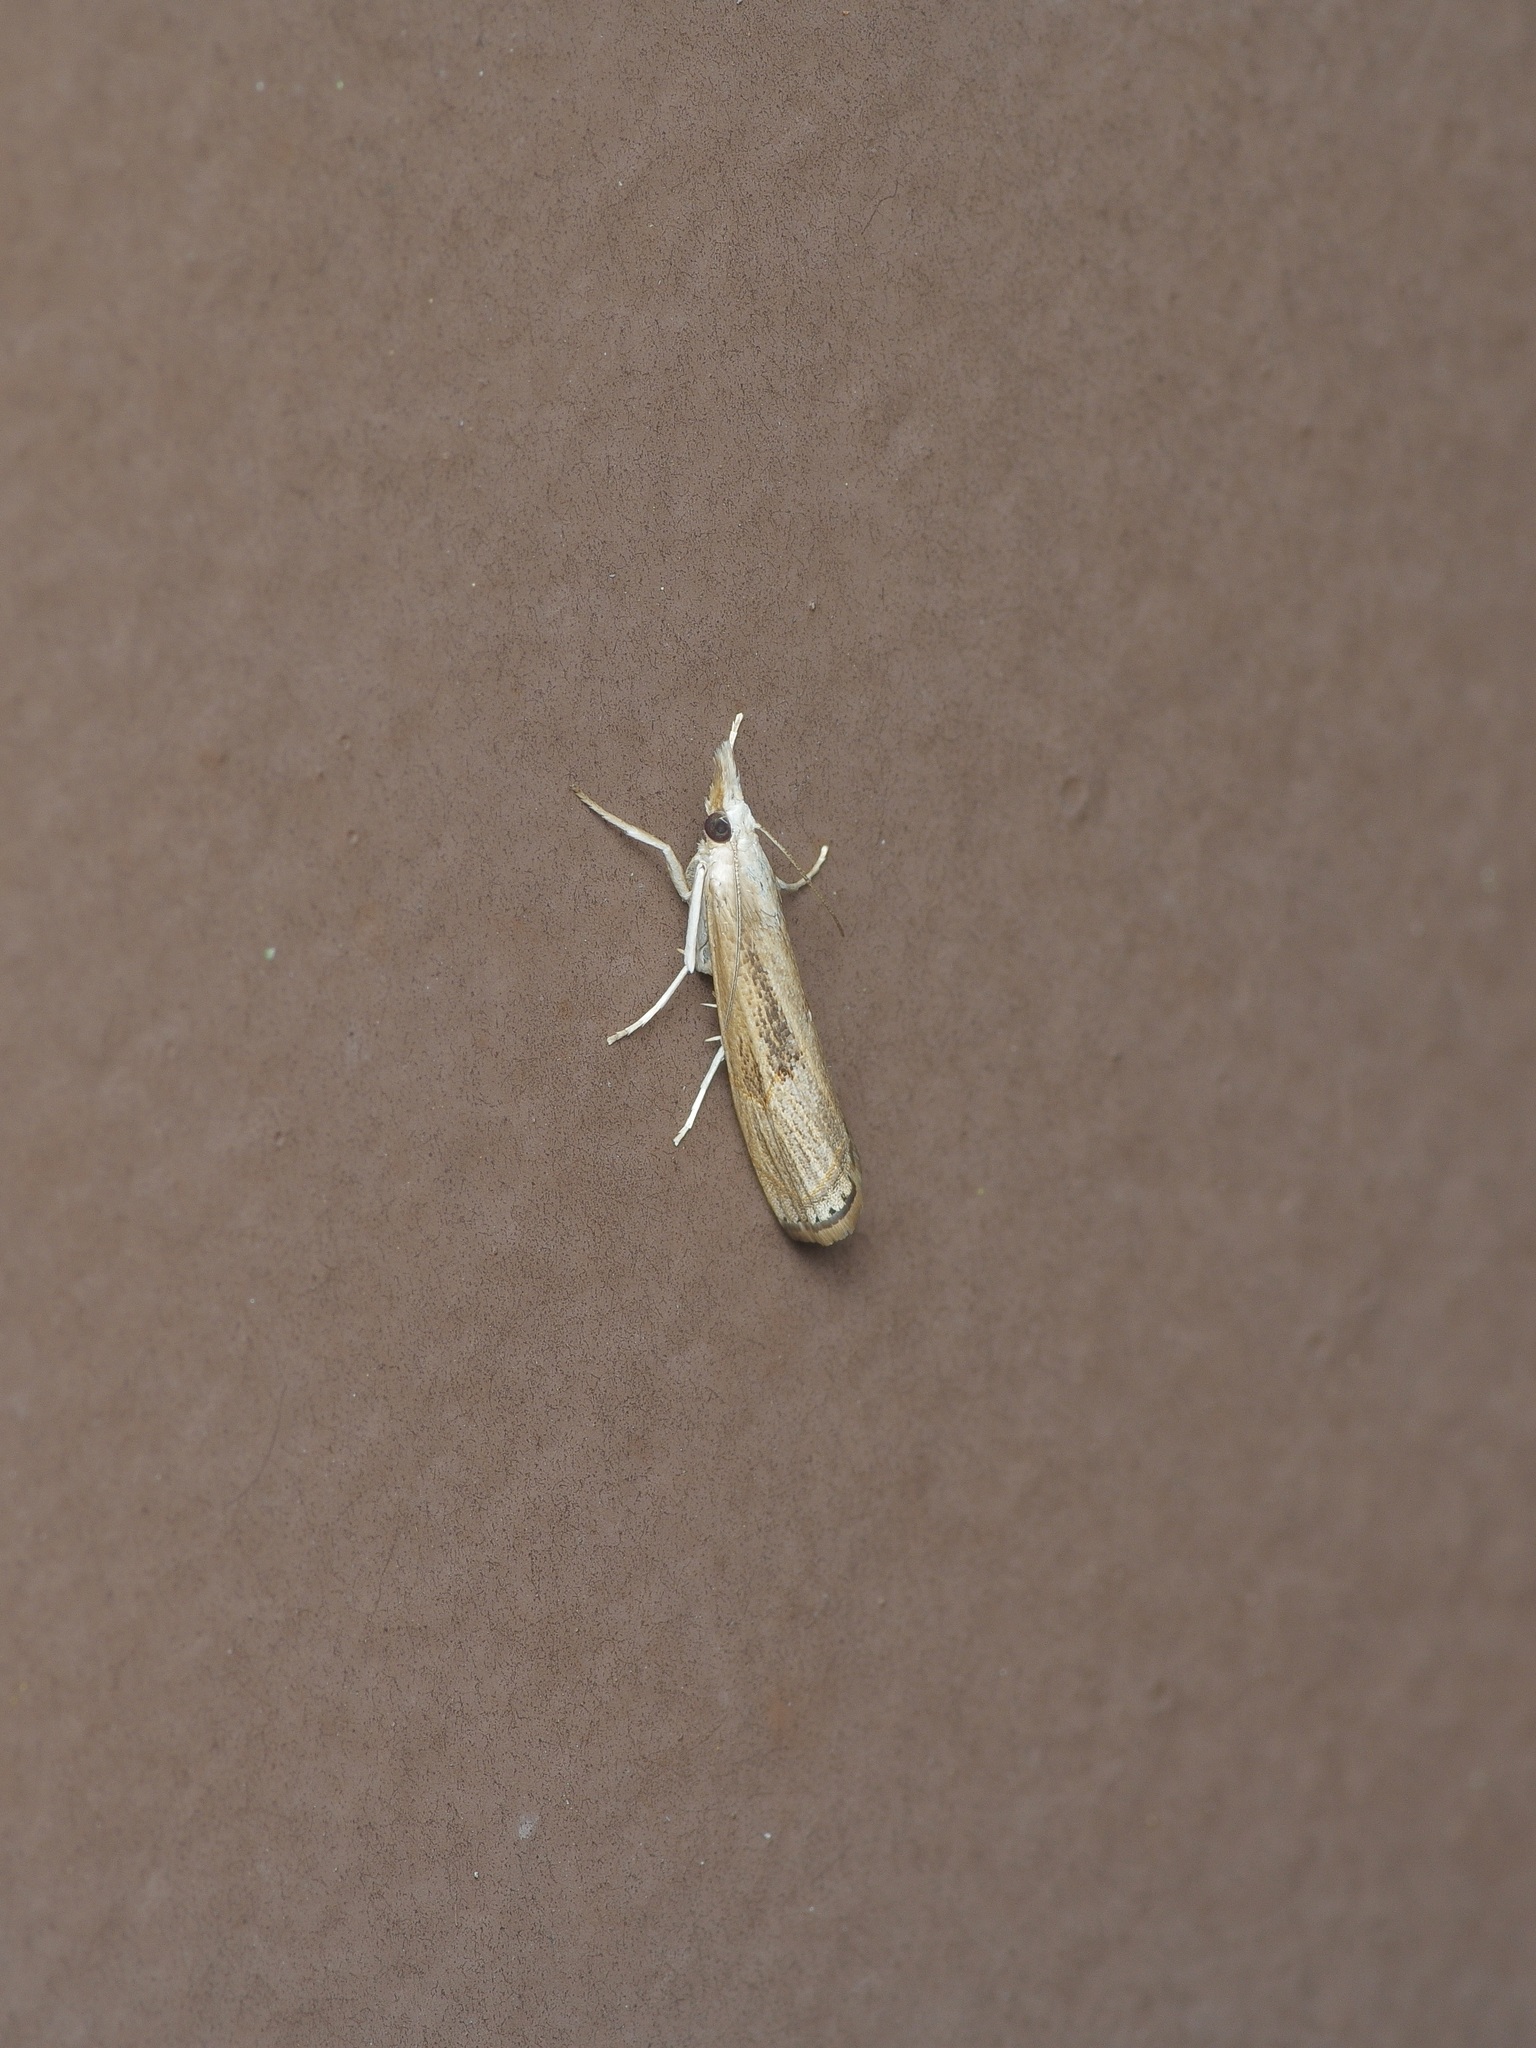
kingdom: Animalia
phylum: Arthropoda
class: Insecta
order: Lepidoptera
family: Crambidae
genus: Parapediasia
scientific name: Parapediasia teterellus
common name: Bluegrass webworm moth
